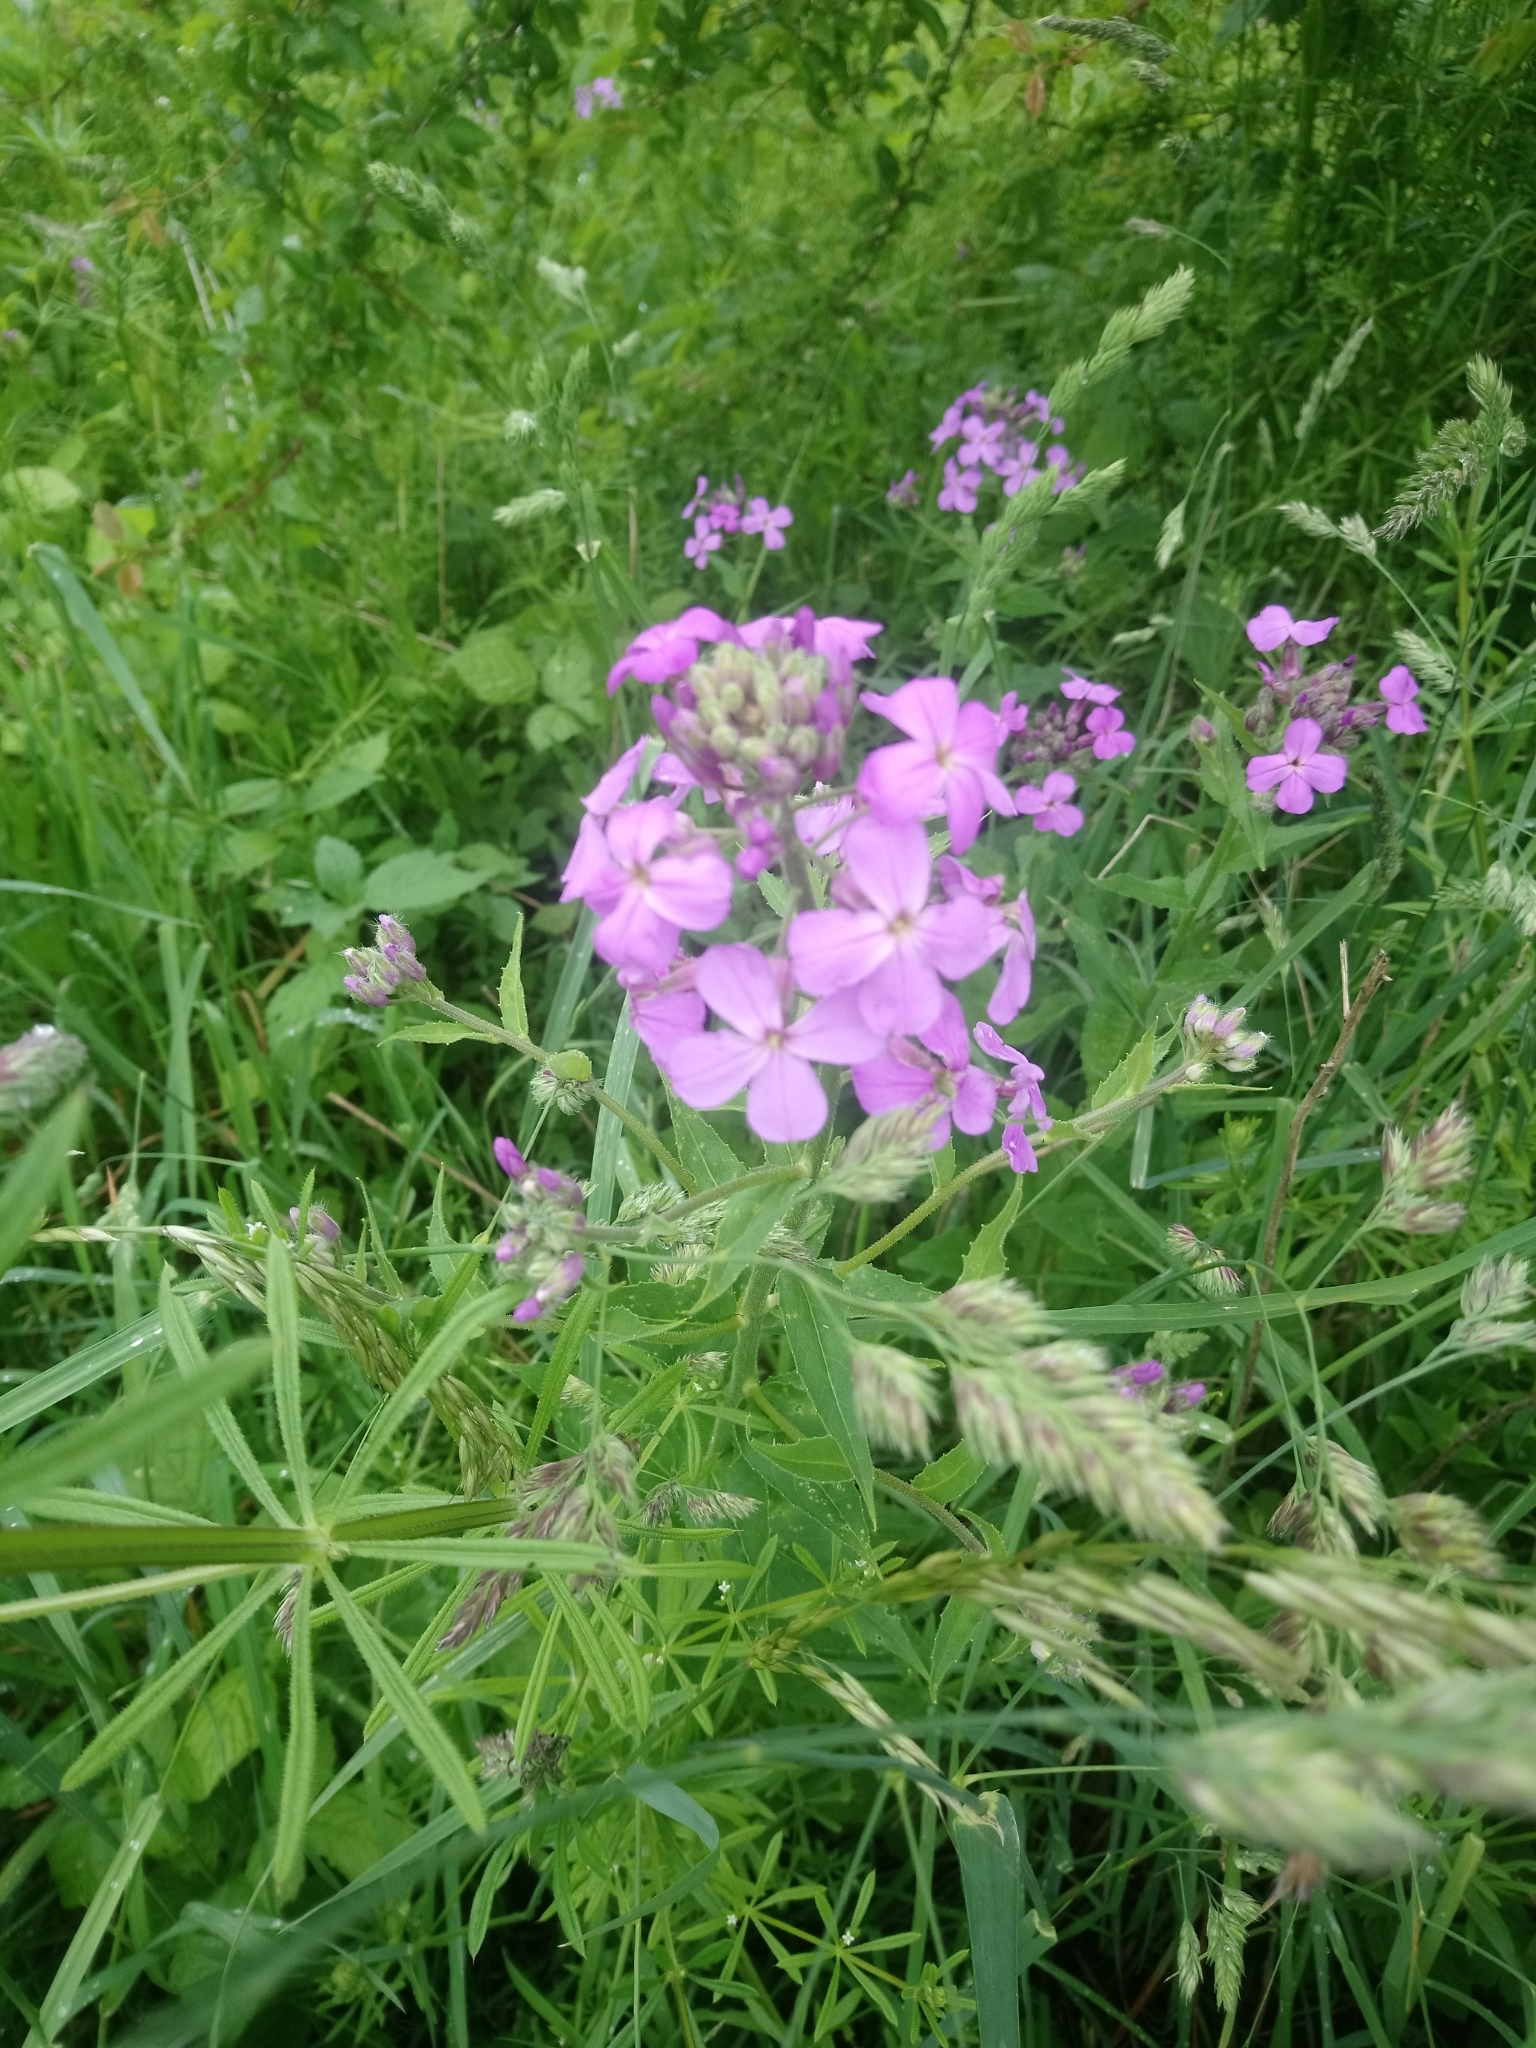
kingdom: Plantae
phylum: Tracheophyta
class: Magnoliopsida
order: Brassicales
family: Brassicaceae
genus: Hesperis
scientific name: Hesperis matronalis
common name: Dame's-violet
